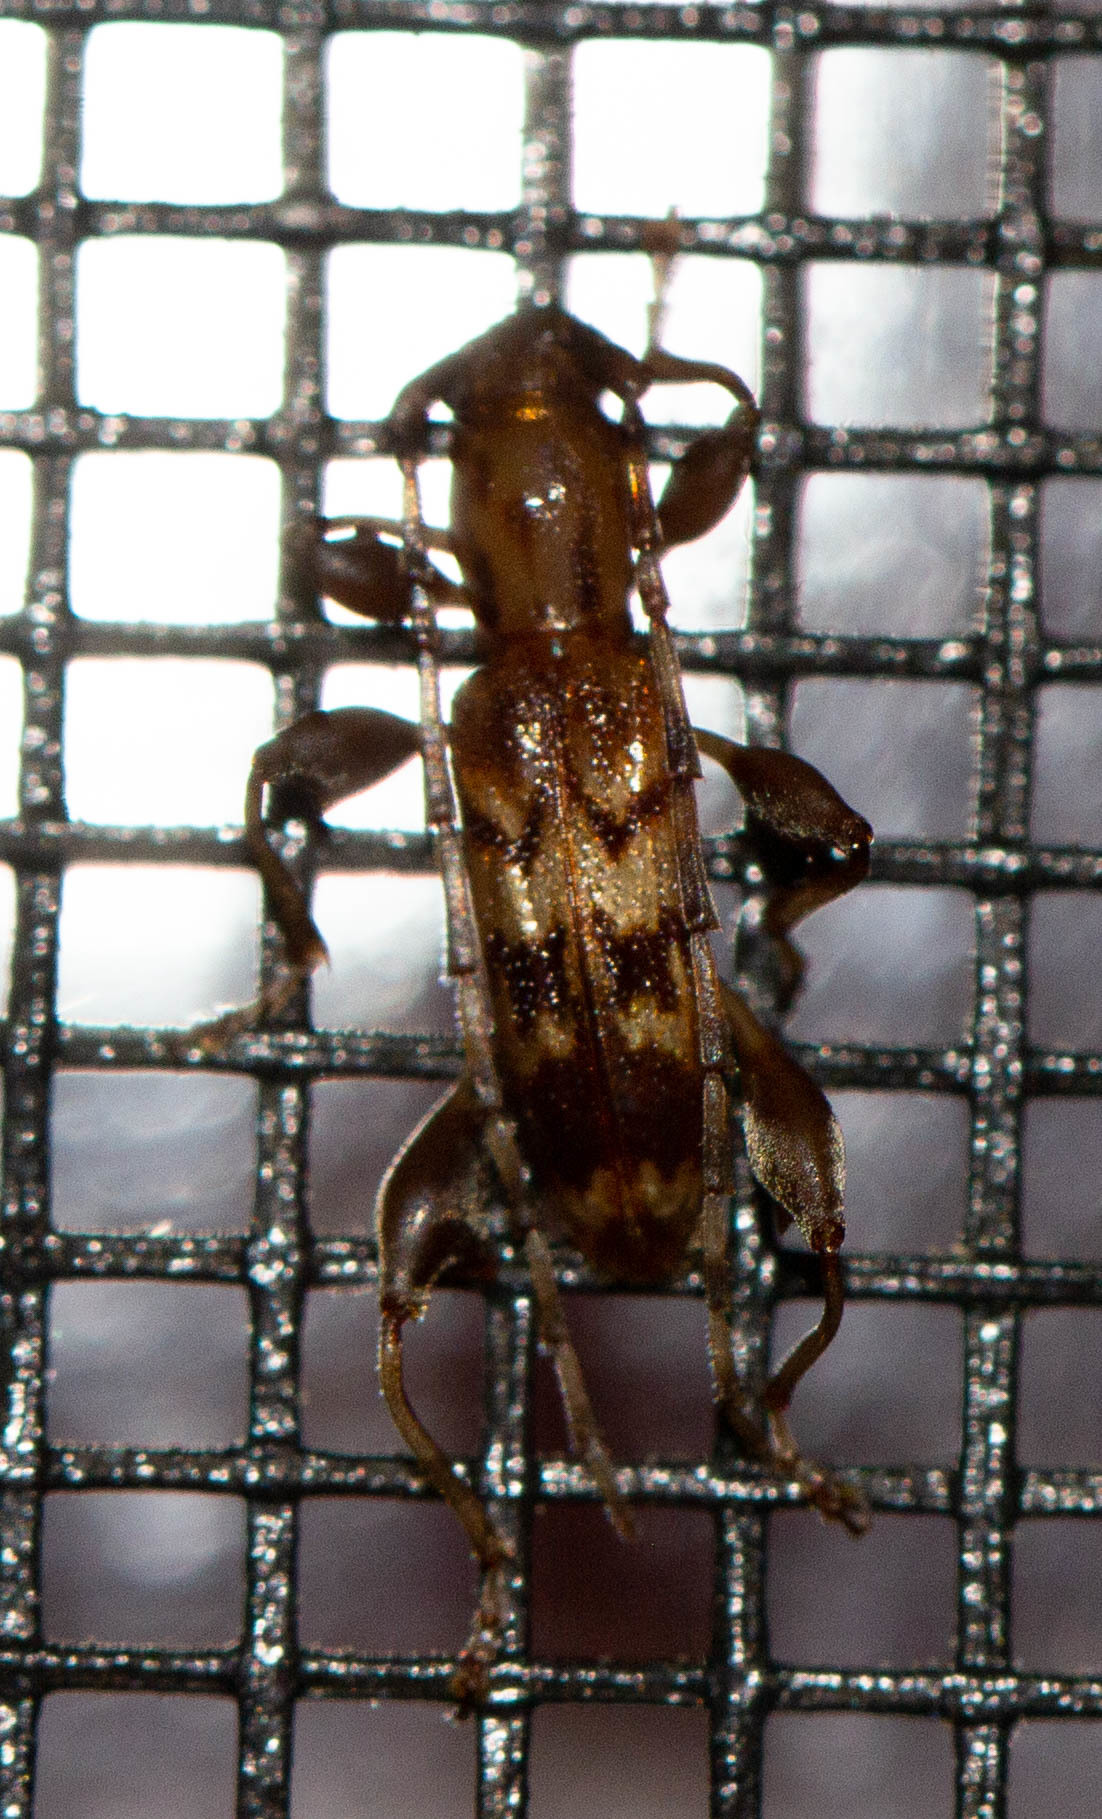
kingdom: Animalia
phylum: Arthropoda
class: Insecta
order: Coleoptera
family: Cerambycidae
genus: Plectromerus
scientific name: Plectromerus dentipes
